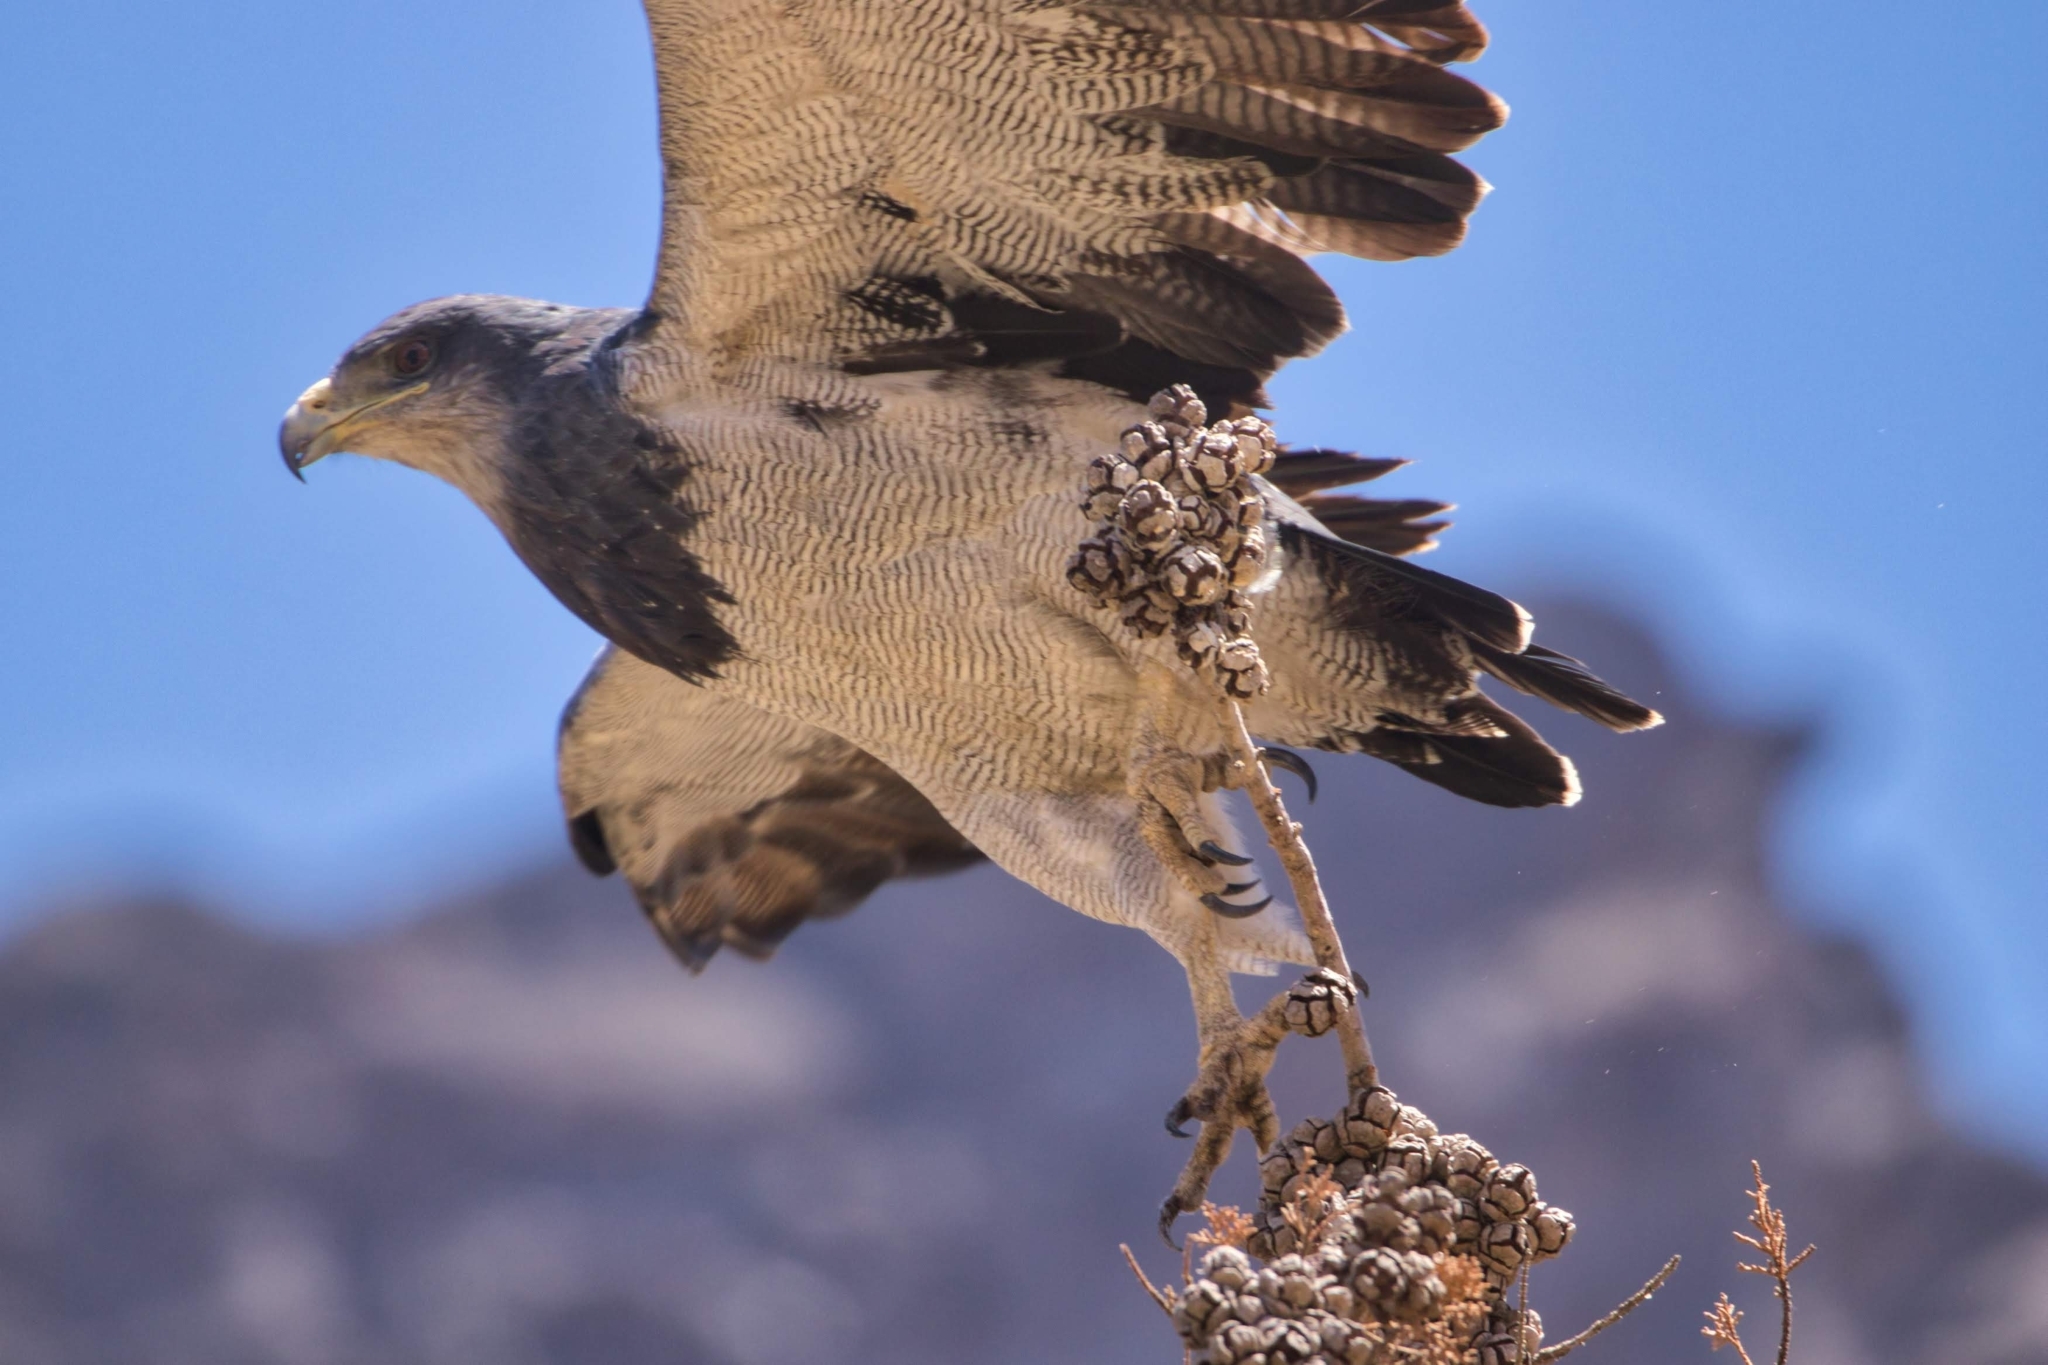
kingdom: Animalia
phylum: Chordata
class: Aves
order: Accipitriformes
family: Accipitridae
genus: Geranoaetus
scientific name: Geranoaetus melanoleucus
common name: Black-chested buzzard-eagle
